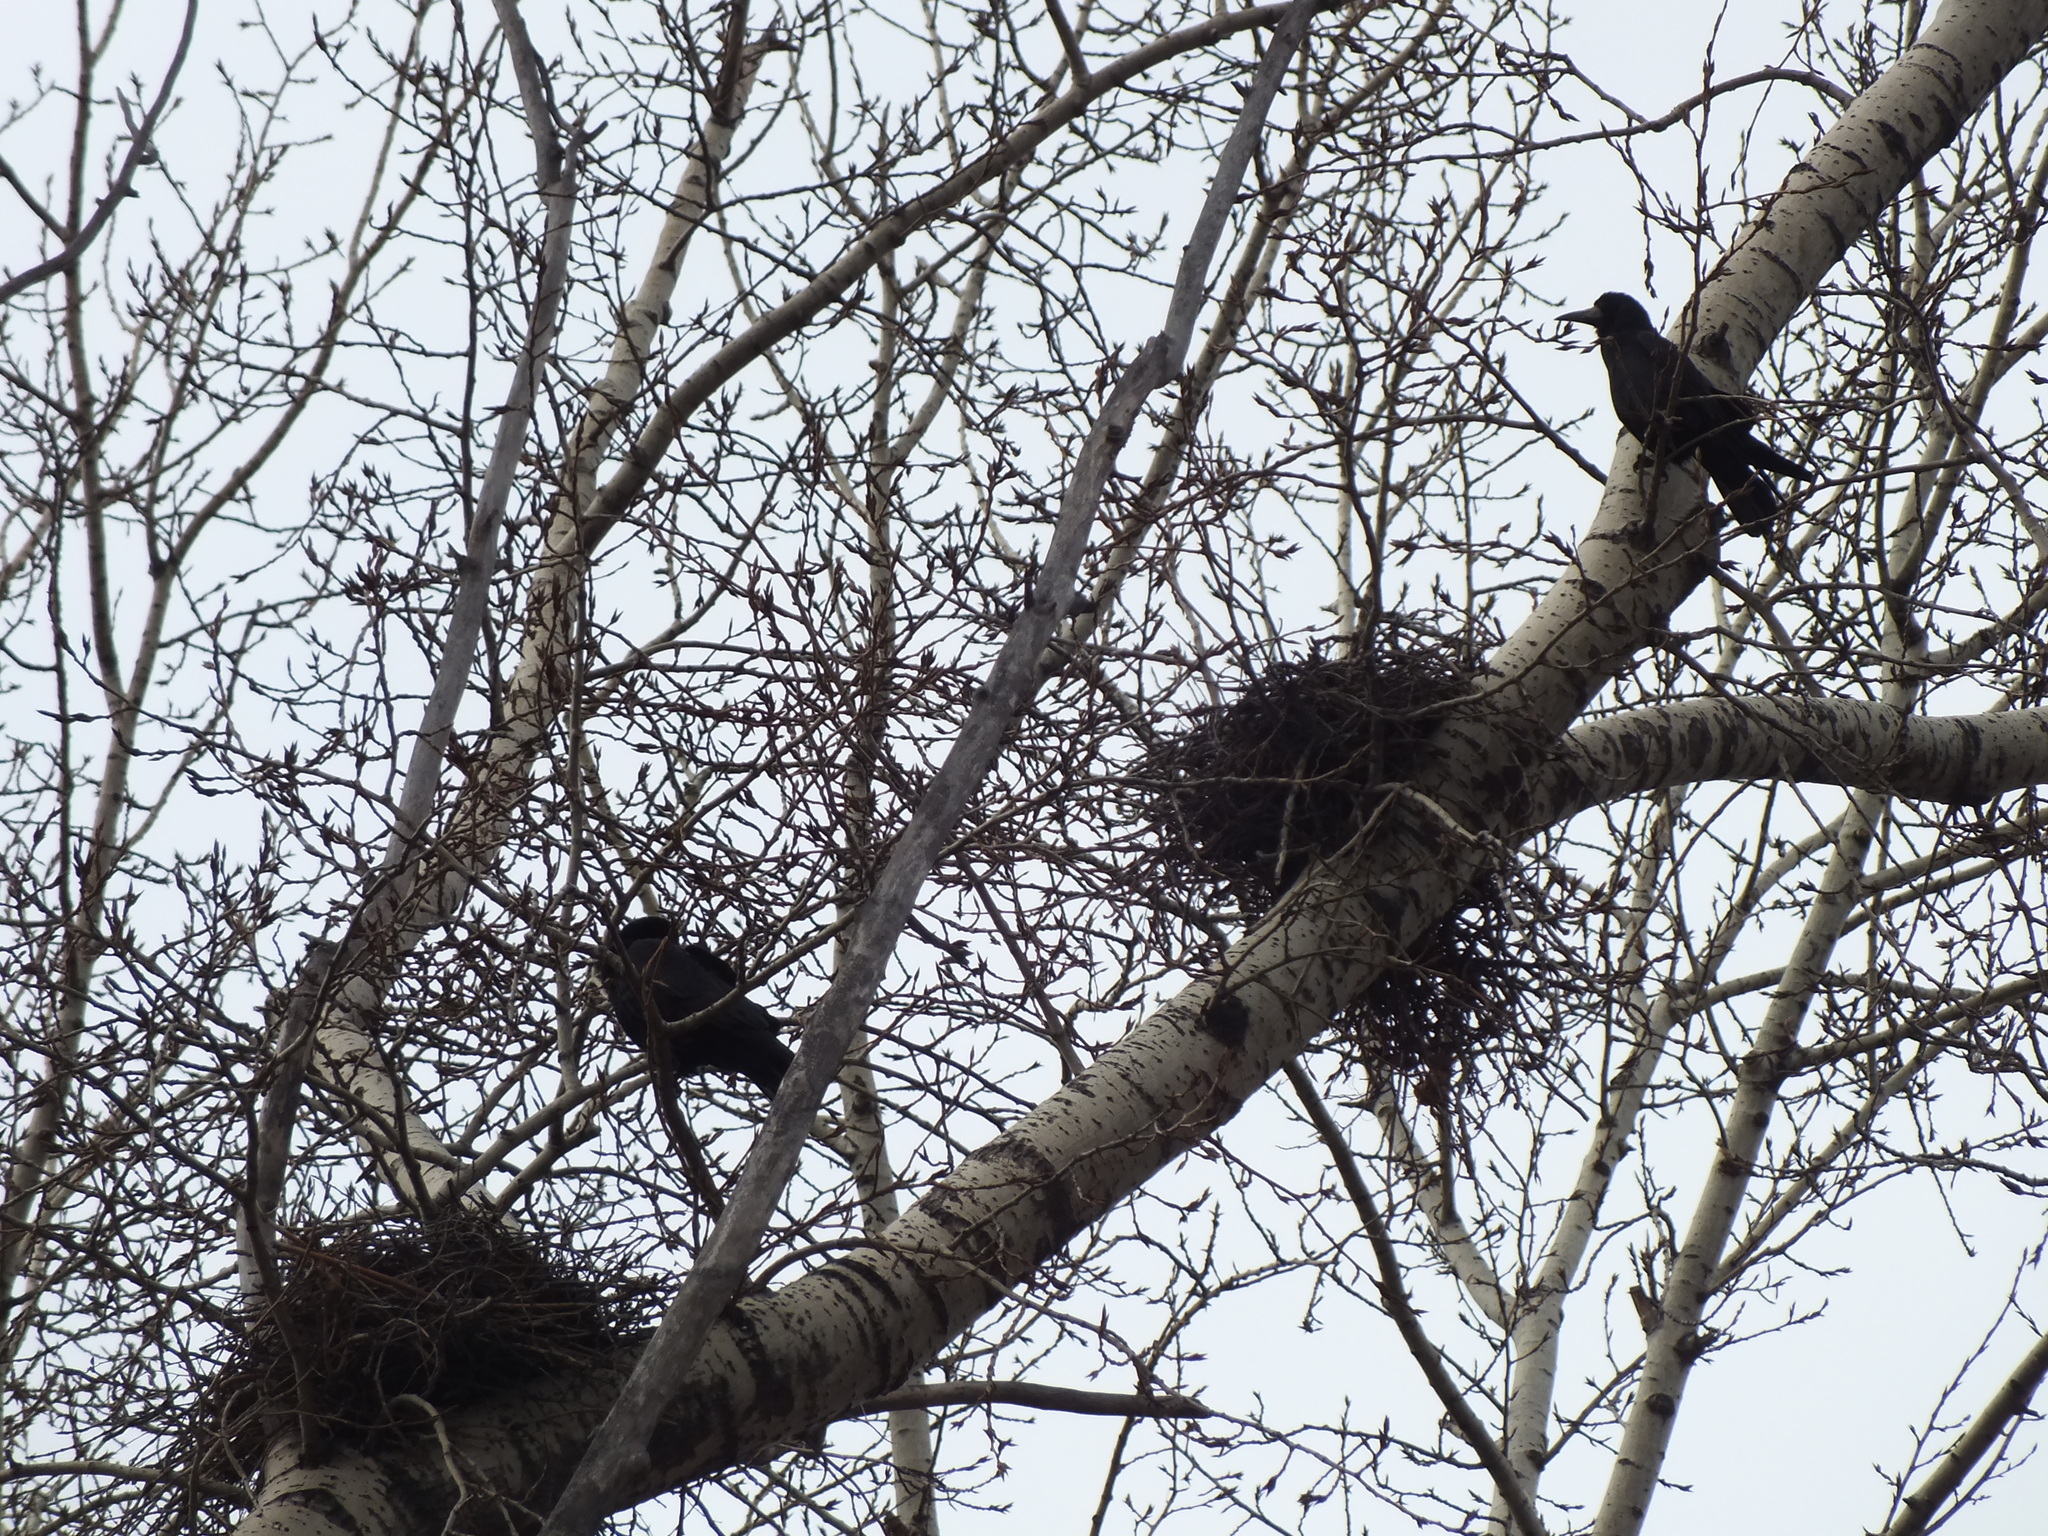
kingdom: Animalia
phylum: Chordata
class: Aves
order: Passeriformes
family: Corvidae
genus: Corvus
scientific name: Corvus frugilegus
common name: Rook
